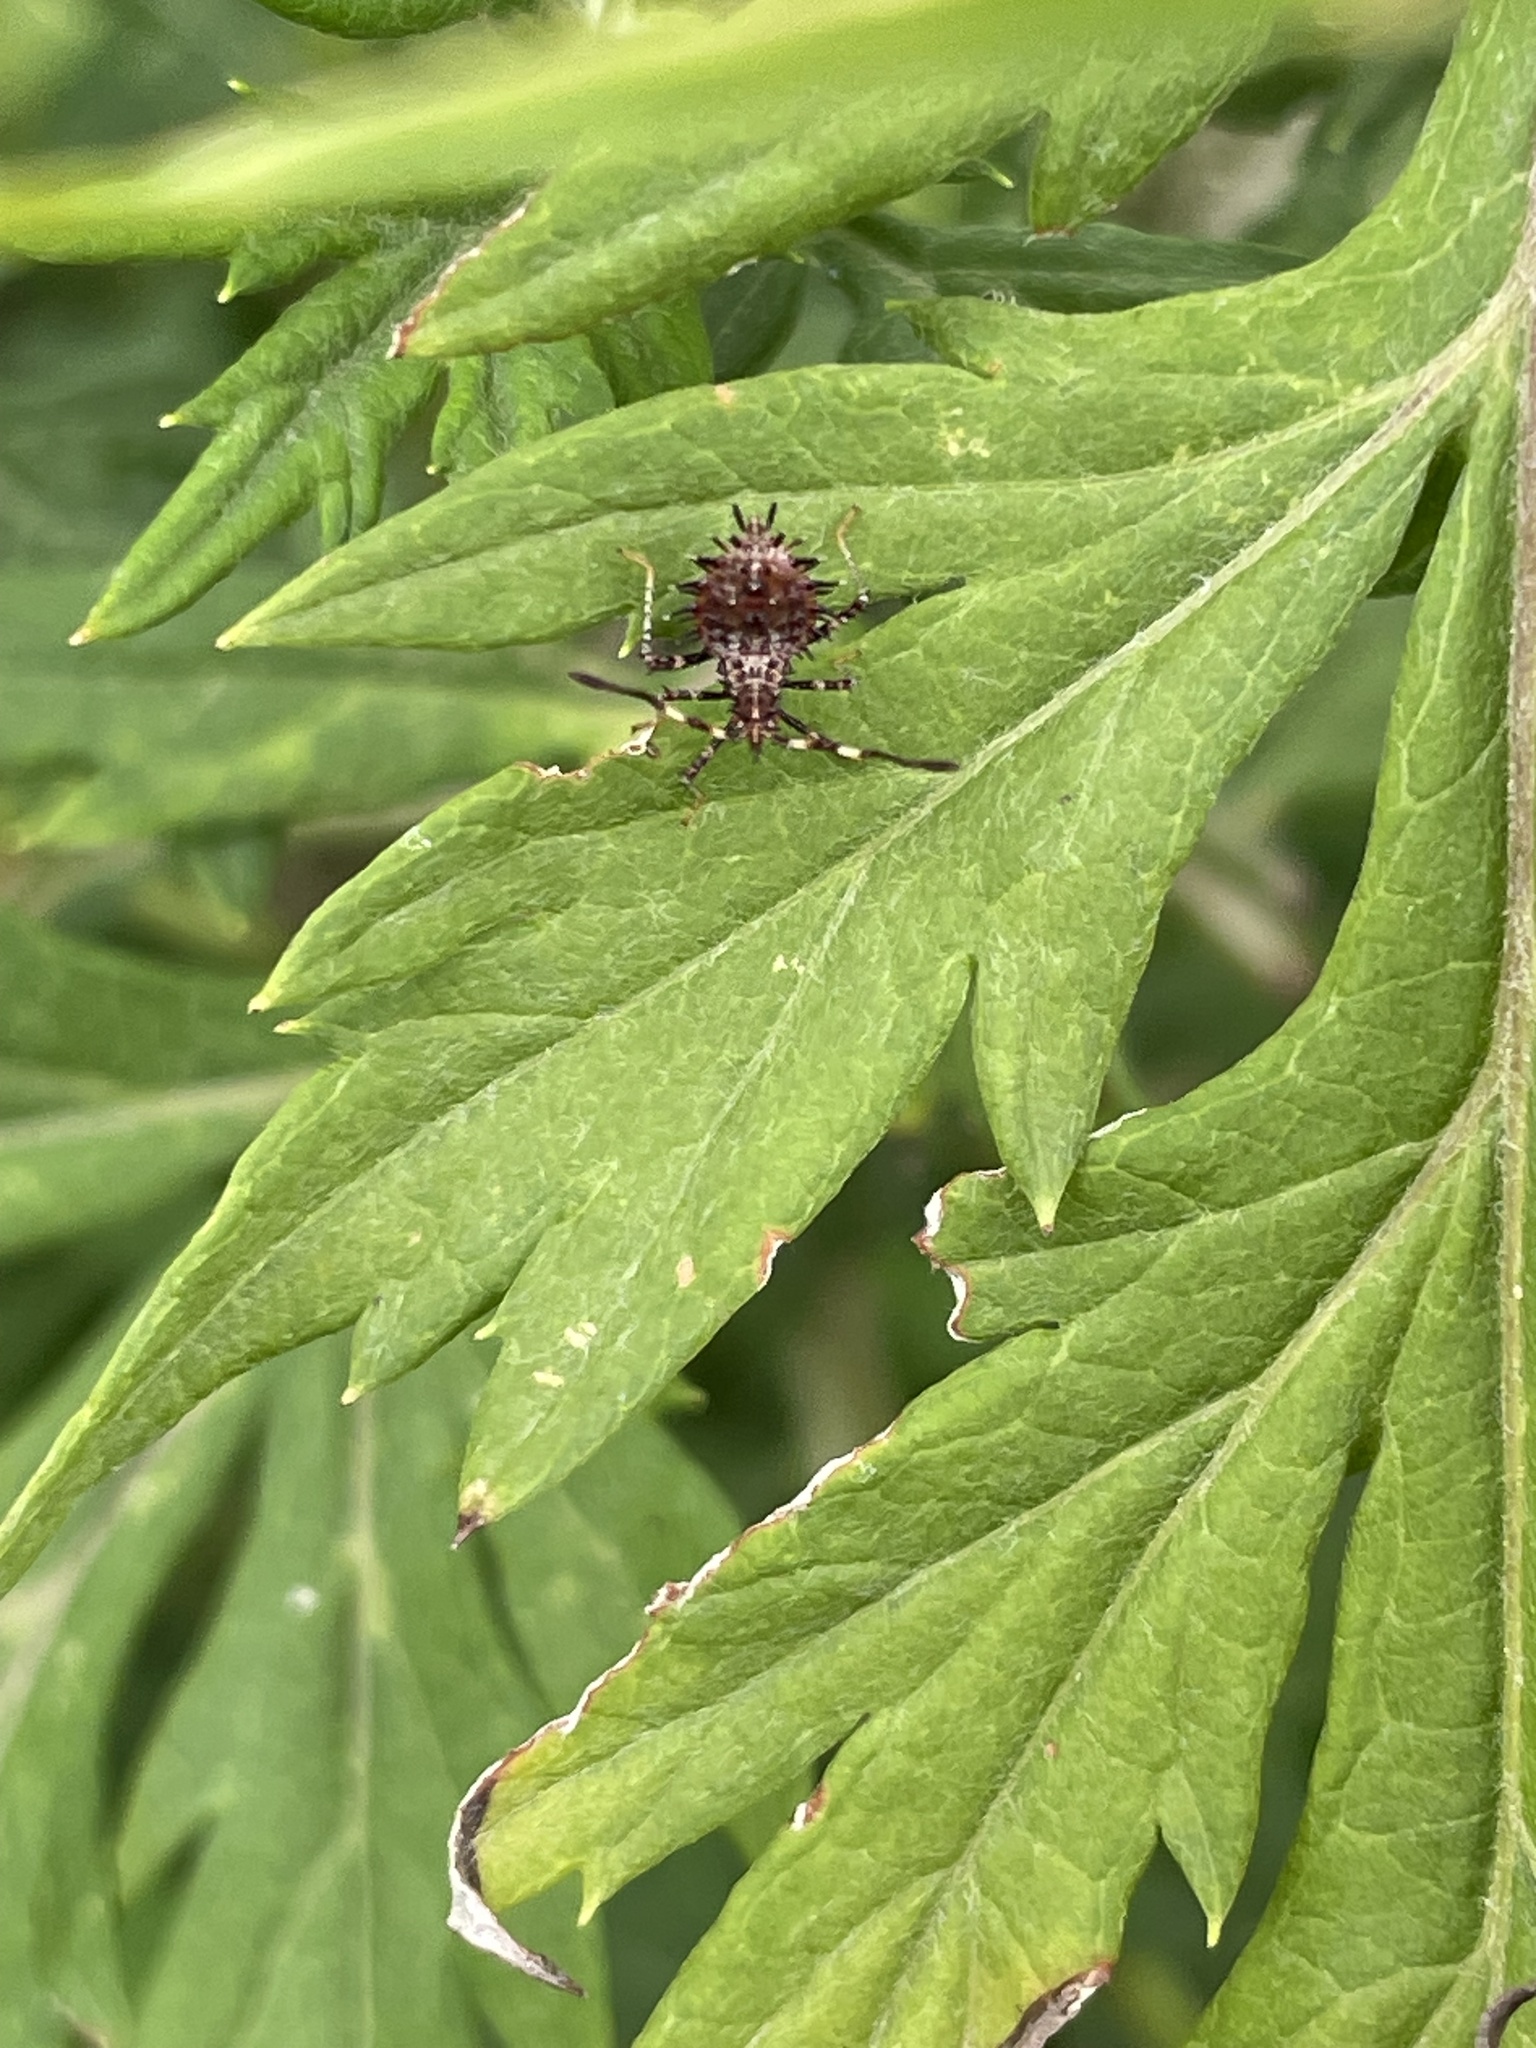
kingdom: Animalia
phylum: Arthropoda
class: Insecta
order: Hemiptera
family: Coreidae
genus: Euthochtha
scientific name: Euthochtha galeator
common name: Helmeted squash bug
